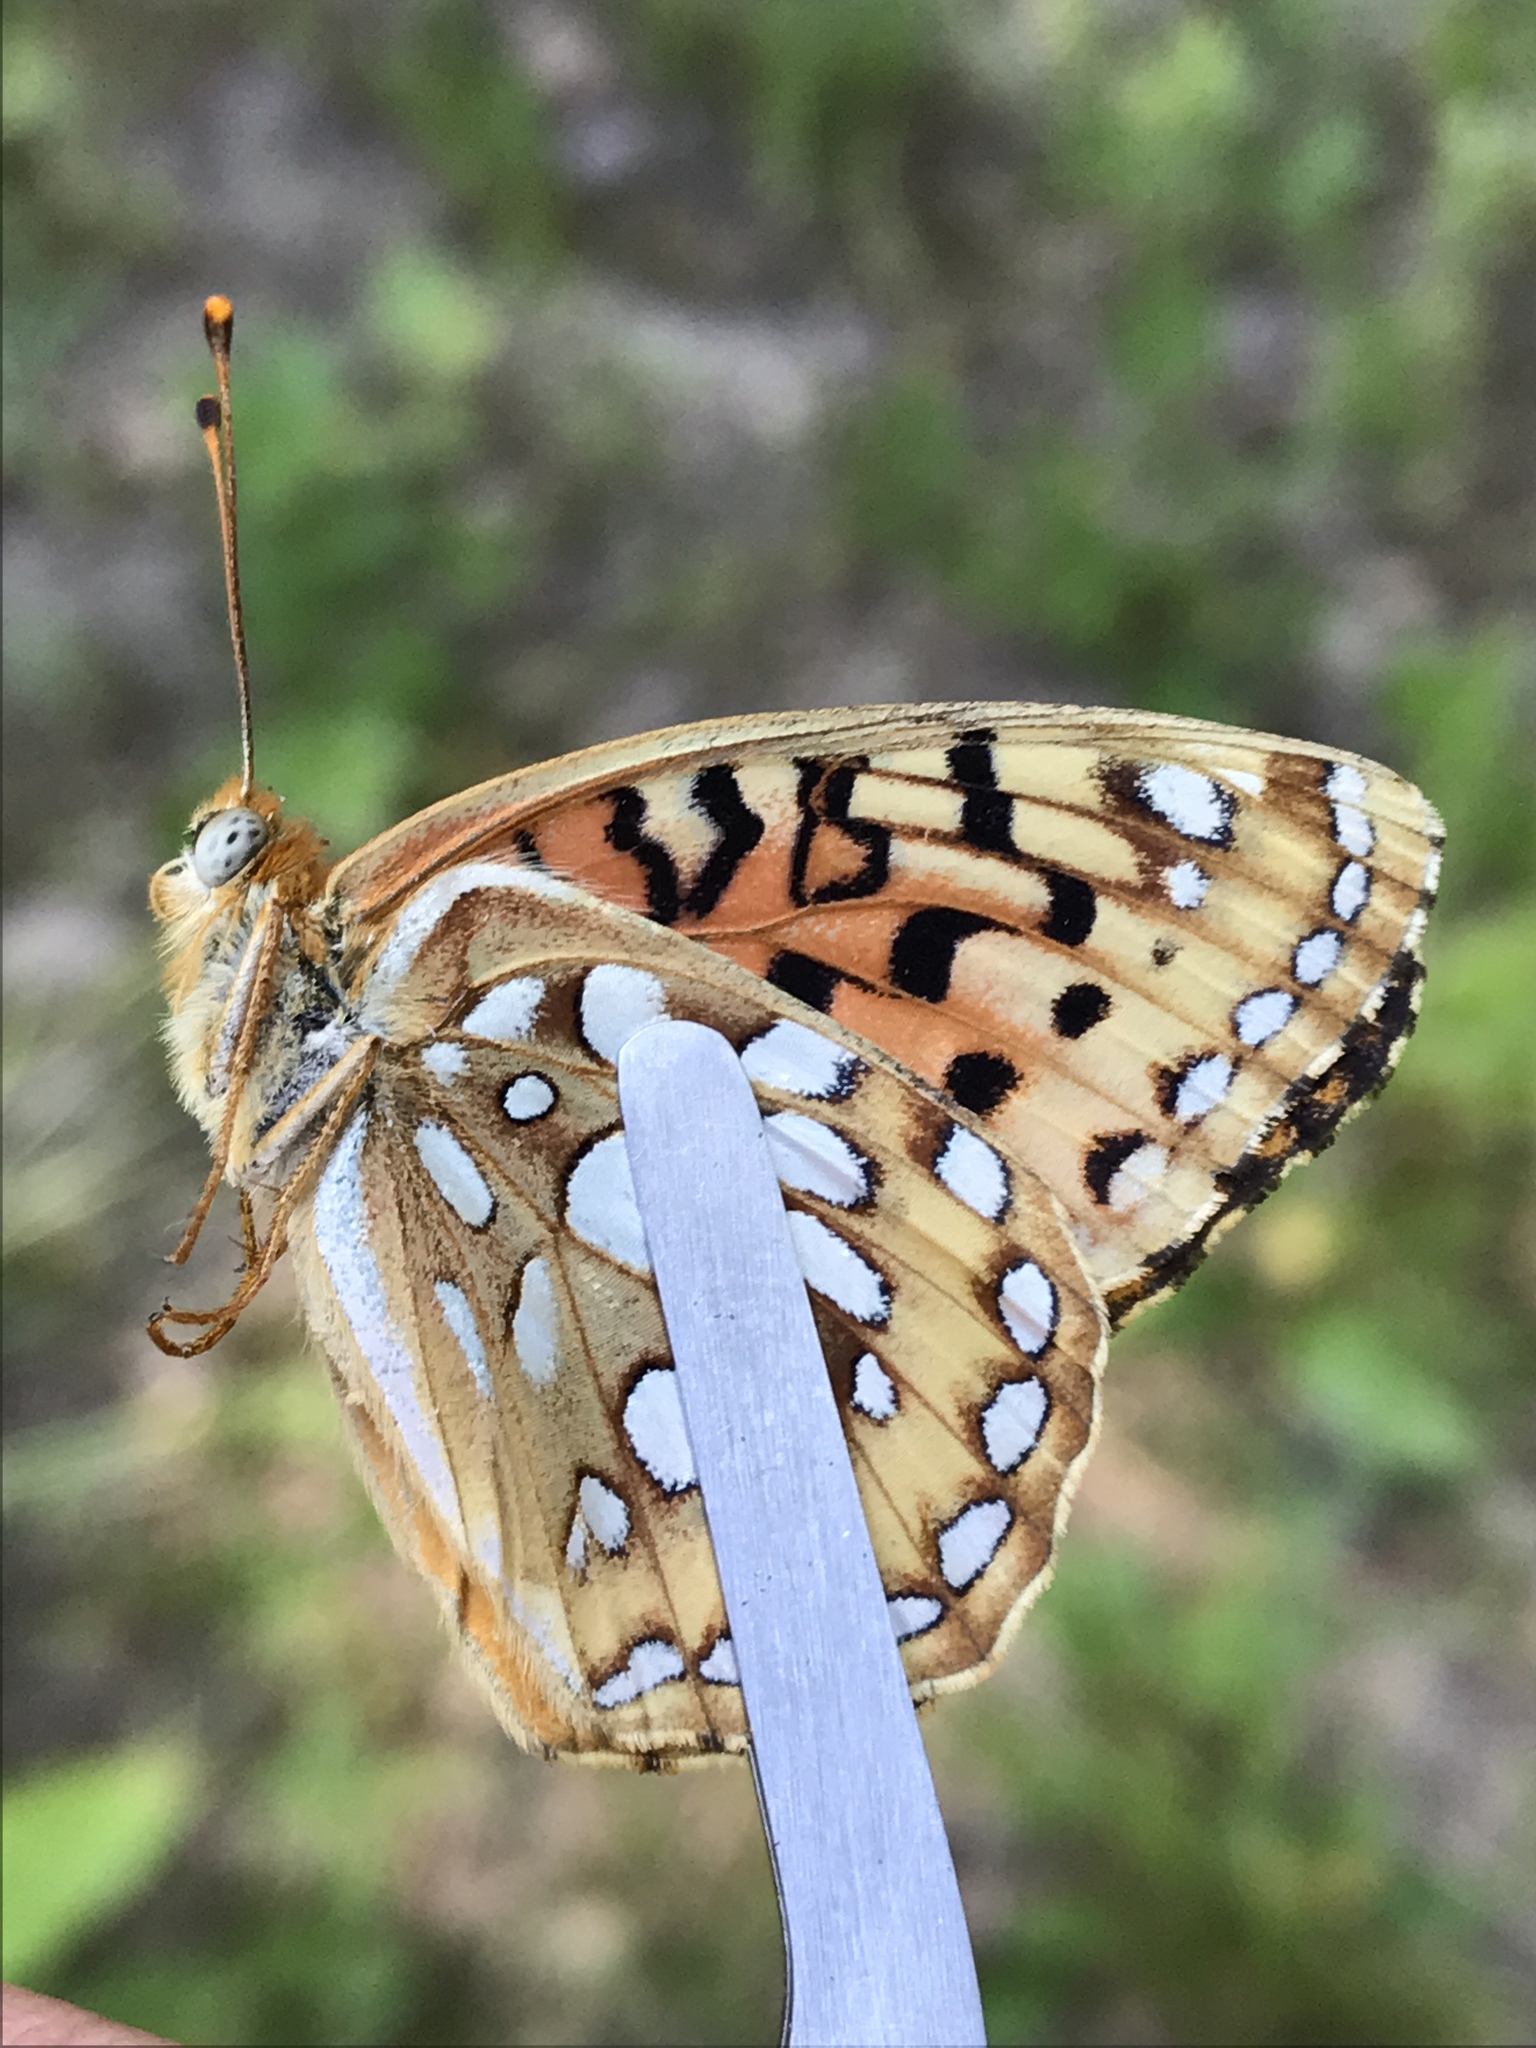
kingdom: Animalia
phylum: Arthropoda
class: Insecta
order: Lepidoptera
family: Nymphalidae
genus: Argynnis
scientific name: Argynnis coronis
